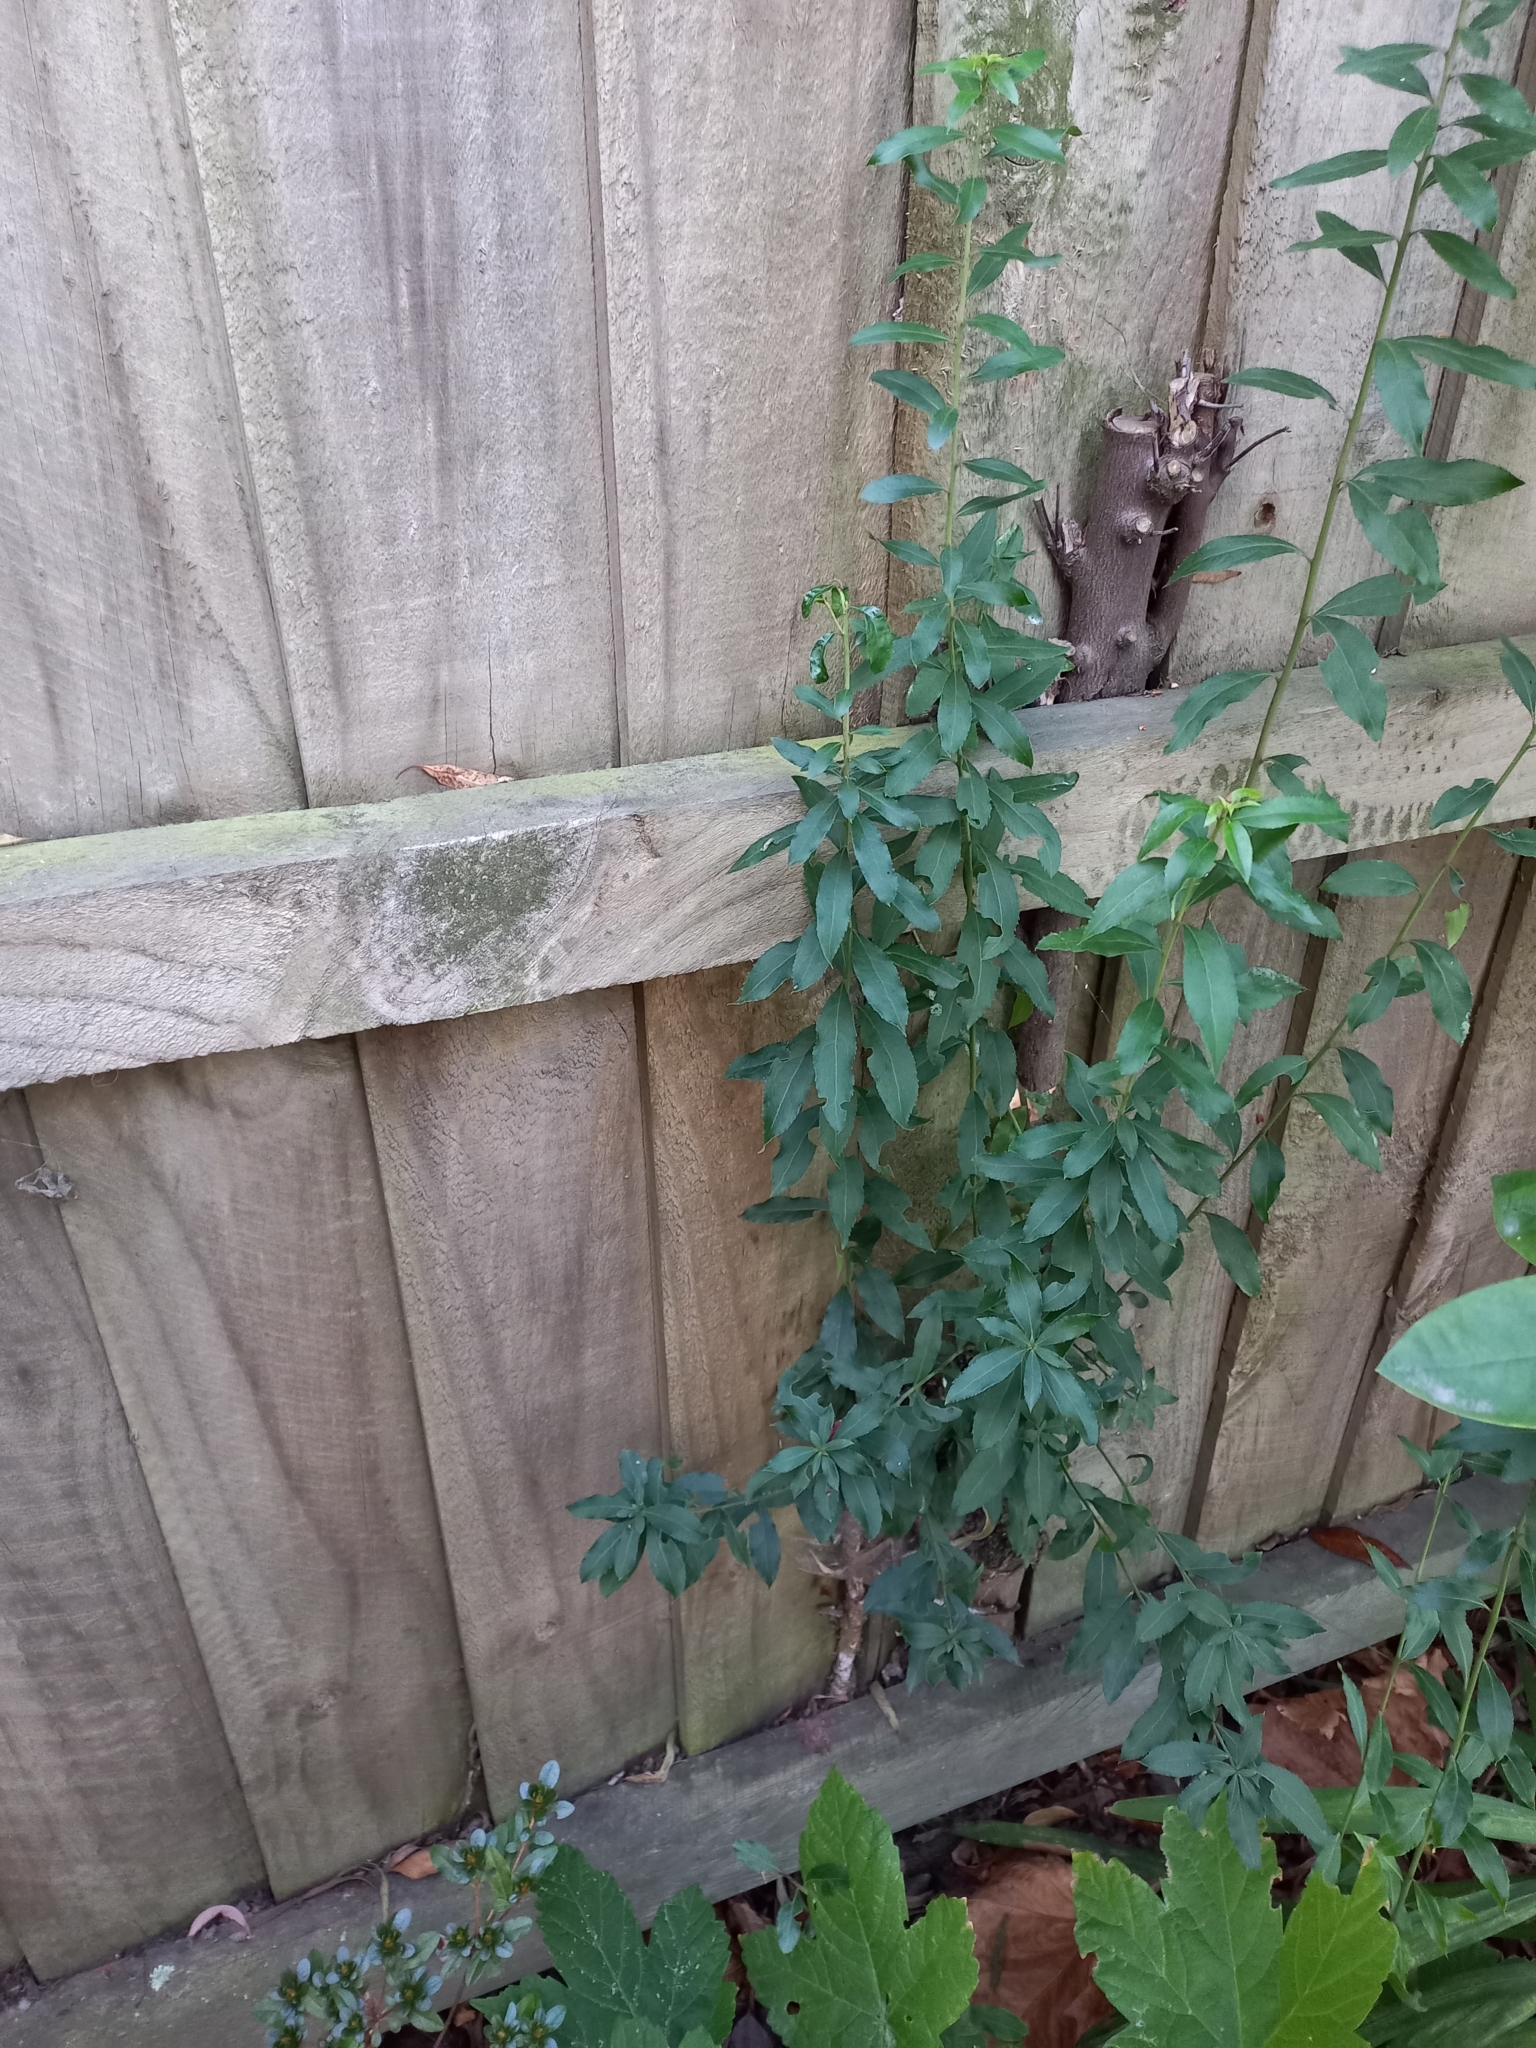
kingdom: Plantae
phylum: Tracheophyta
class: Magnoliopsida
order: Celastrales
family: Celastraceae
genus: Maytenus
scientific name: Maytenus boaria
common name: Mayten
